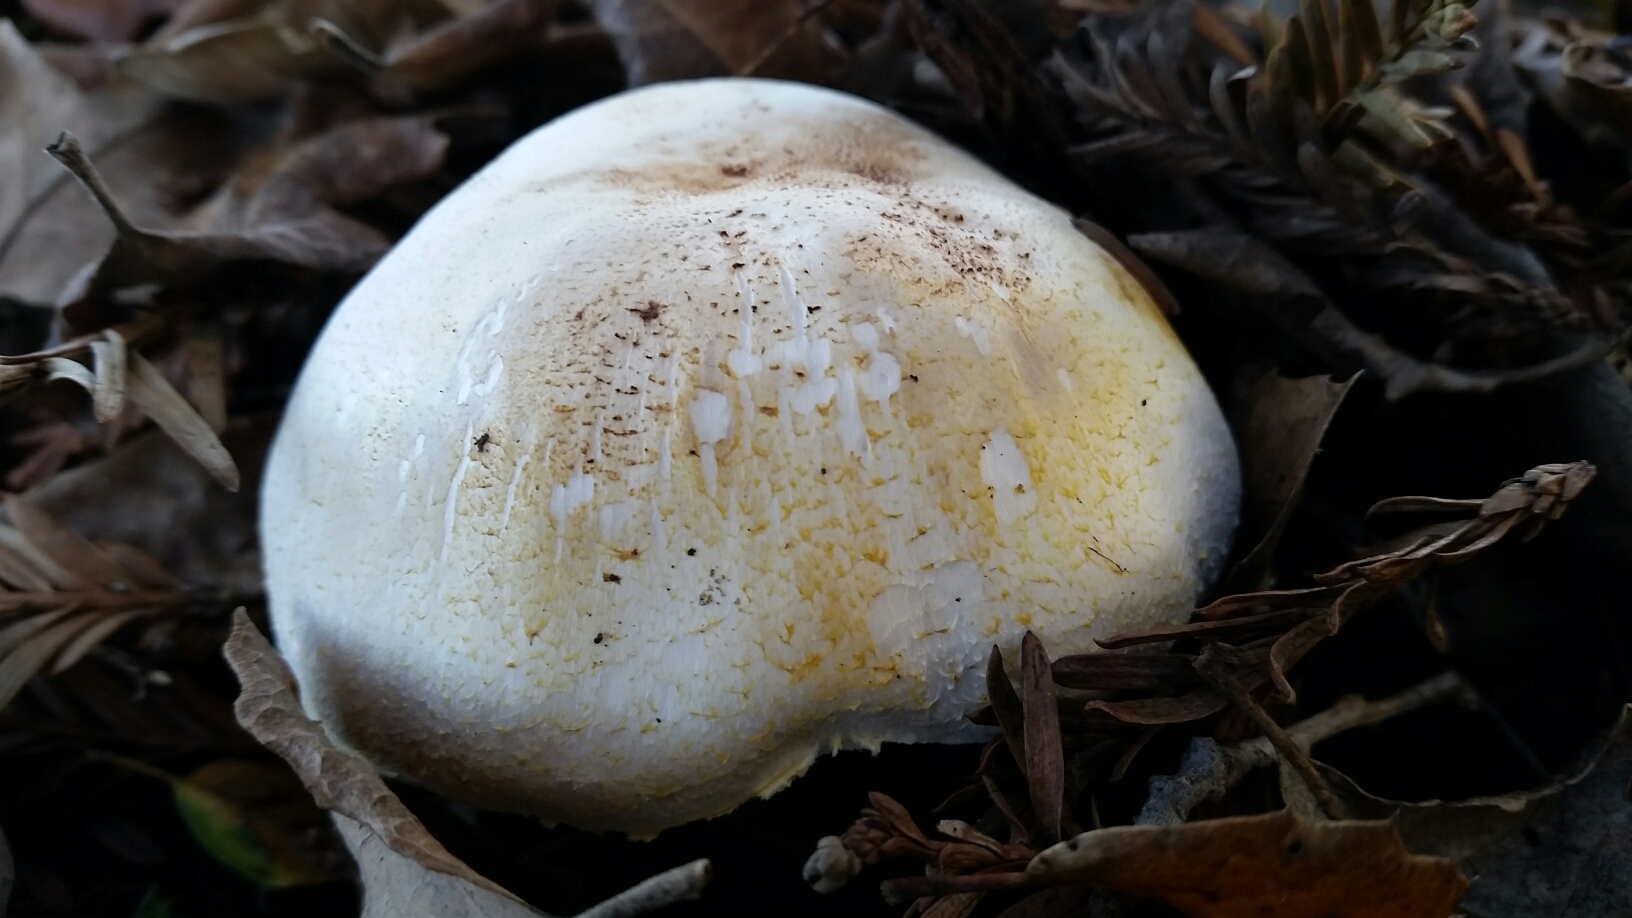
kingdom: Fungi
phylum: Basidiomycota
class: Agaricomycetes
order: Agaricales
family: Agaricaceae
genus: Agaricus
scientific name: Agaricus xanthodermus
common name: Yellow stainer
